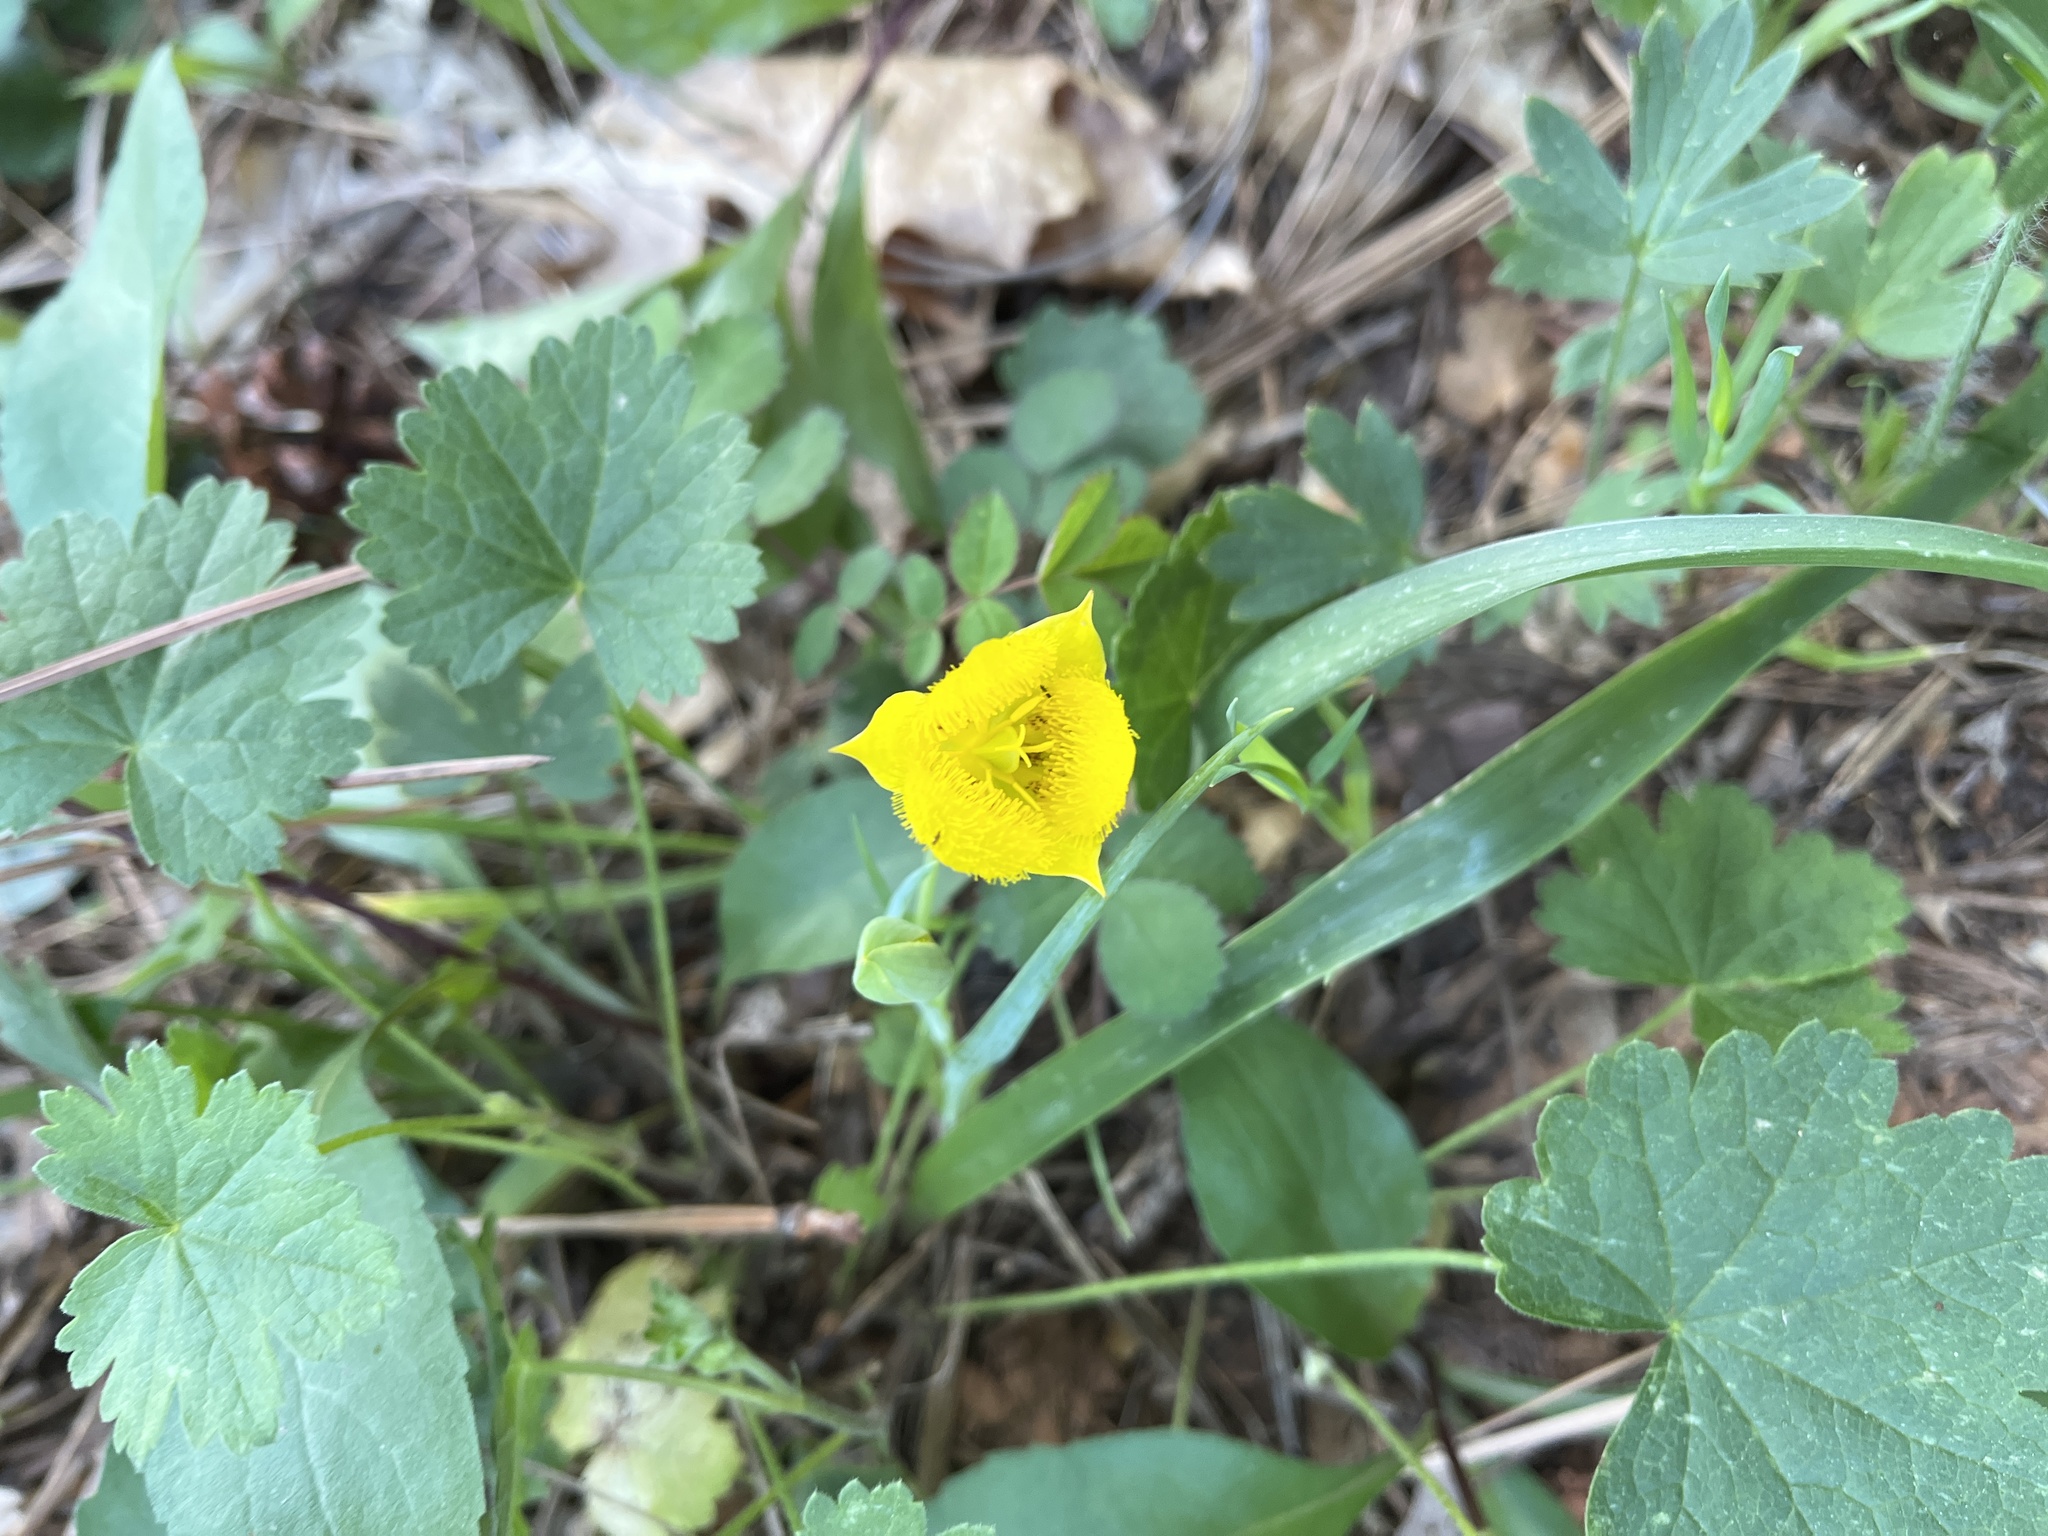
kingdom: Plantae
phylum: Tracheophyta
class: Liliopsida
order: Liliales
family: Liliaceae
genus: Calochortus
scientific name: Calochortus monophyllus
